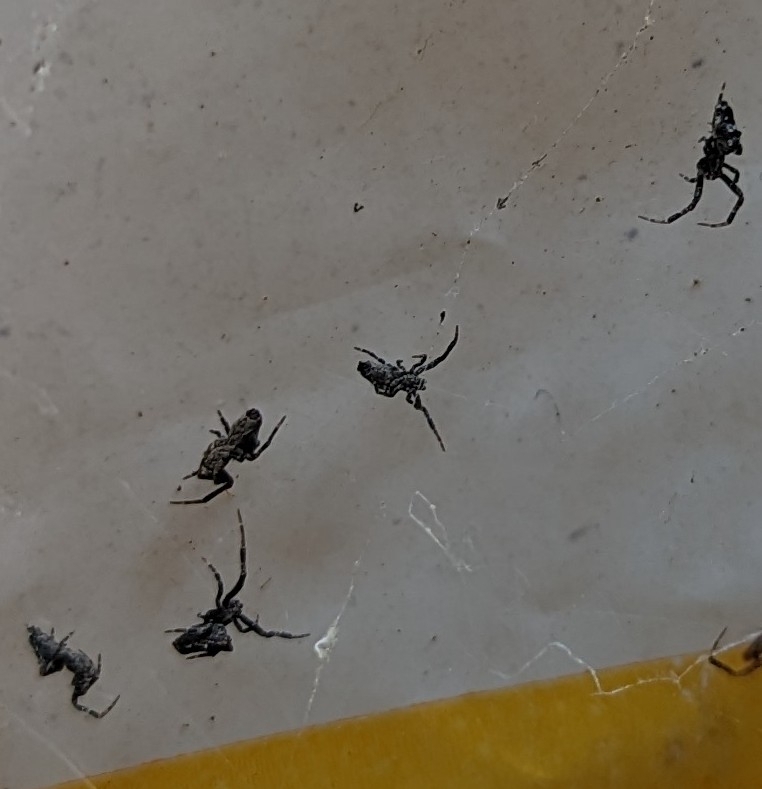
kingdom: Animalia
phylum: Arthropoda
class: Arachnida
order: Araneae
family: Uloboridae
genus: Philoponella
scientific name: Philoponella congregabilis
